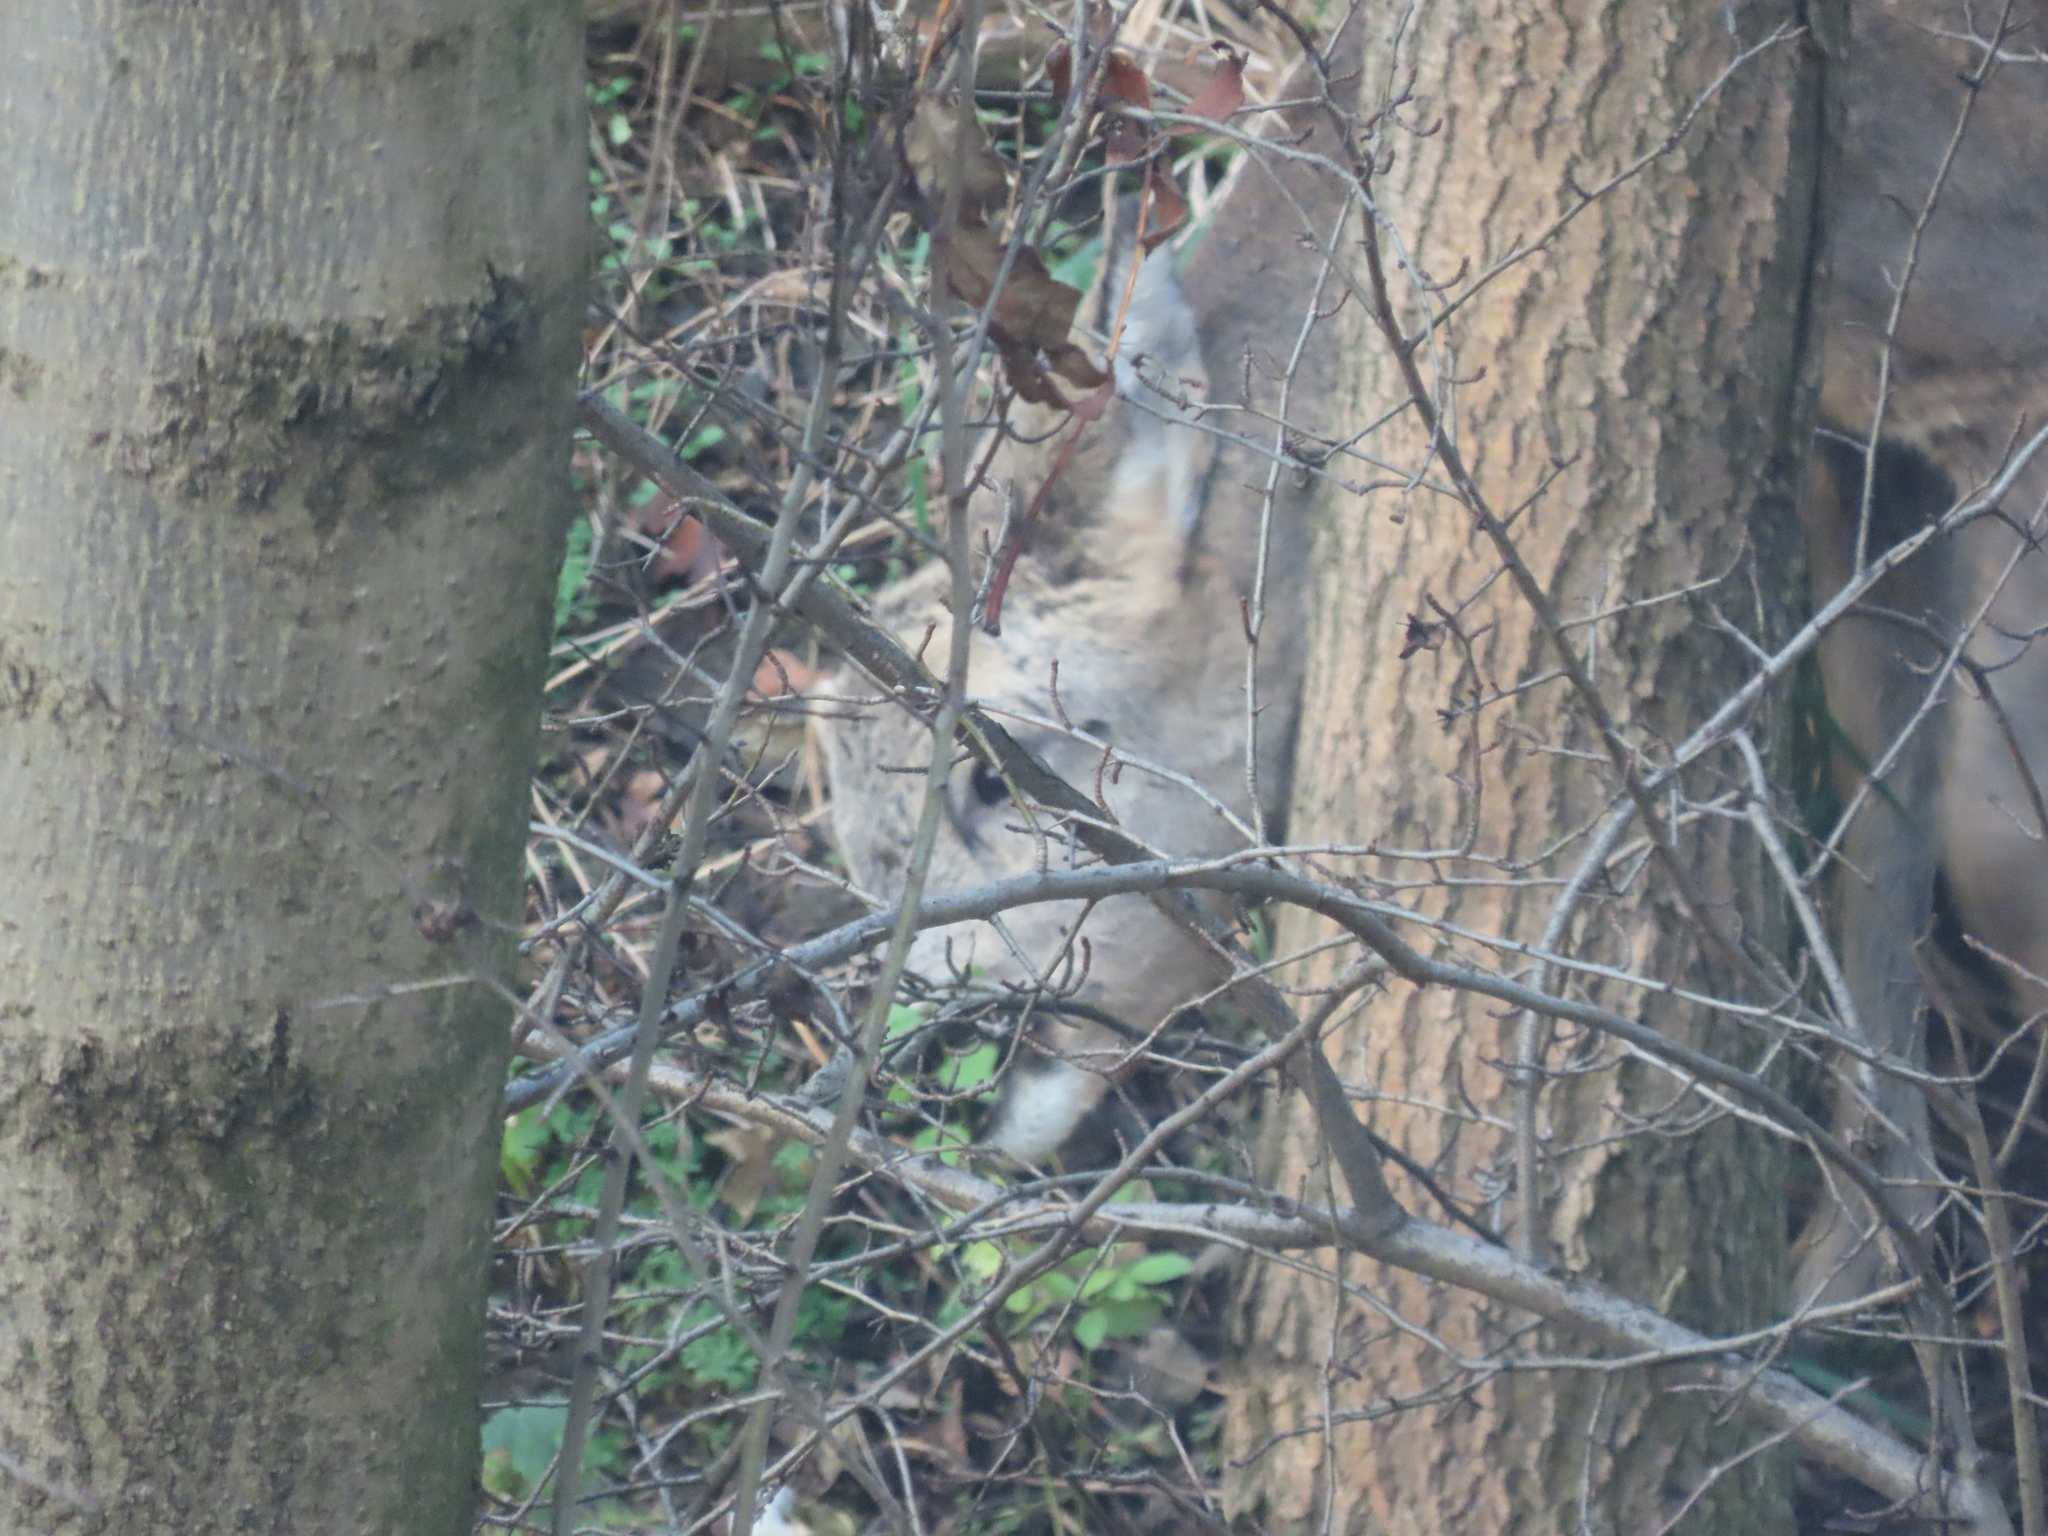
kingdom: Animalia
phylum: Chordata
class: Mammalia
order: Artiodactyla
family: Cervidae
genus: Capreolus
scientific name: Capreolus capreolus
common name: Western roe deer
